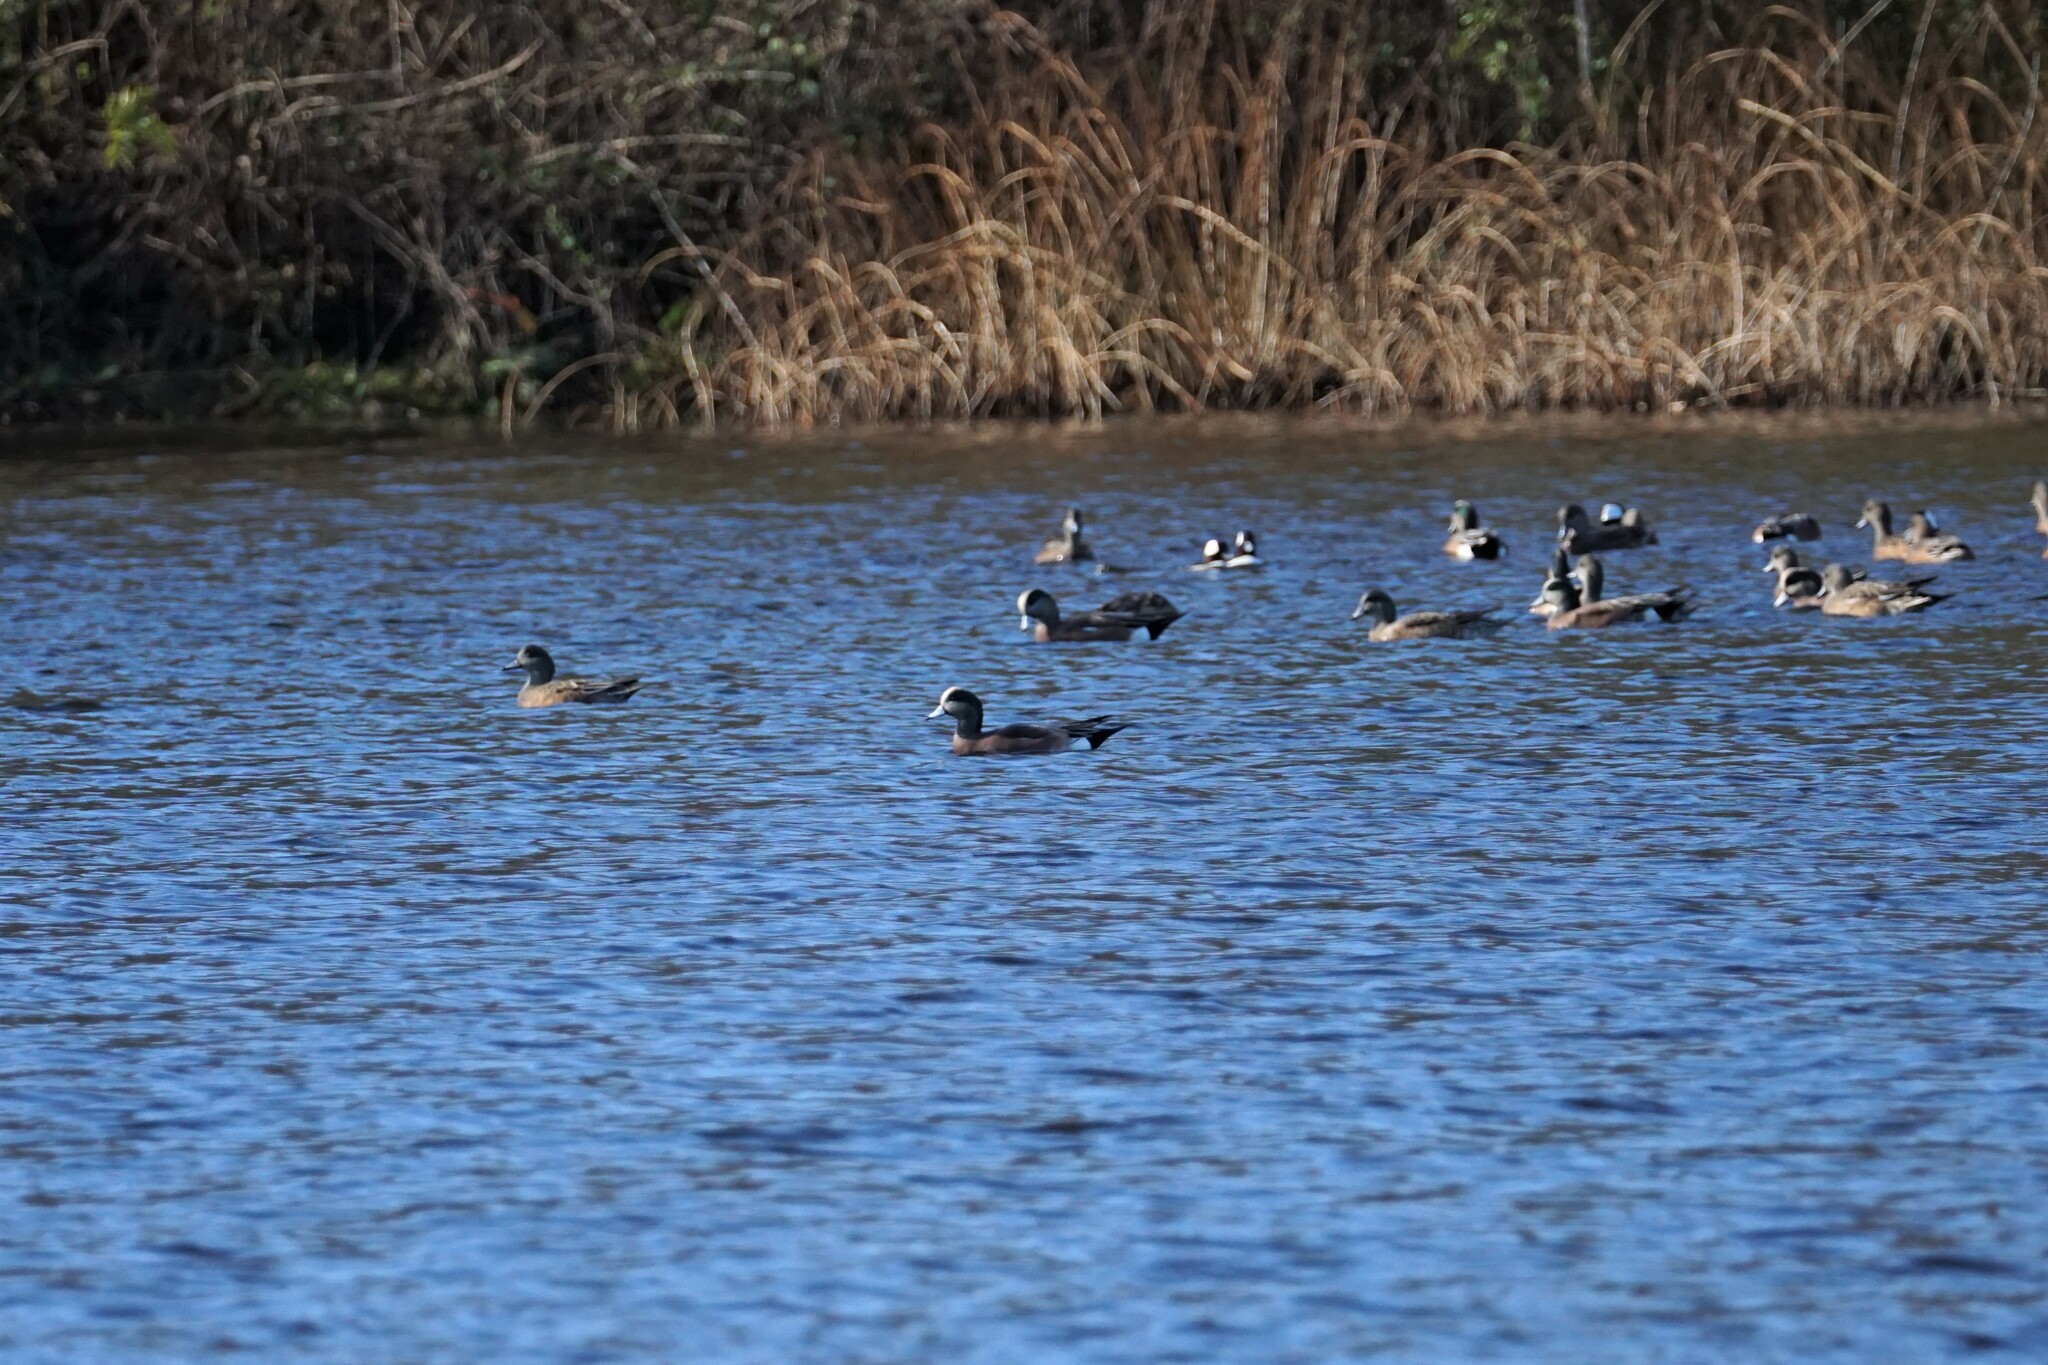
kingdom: Animalia
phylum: Chordata
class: Aves
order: Anseriformes
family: Anatidae
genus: Mareca
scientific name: Mareca americana
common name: American wigeon
